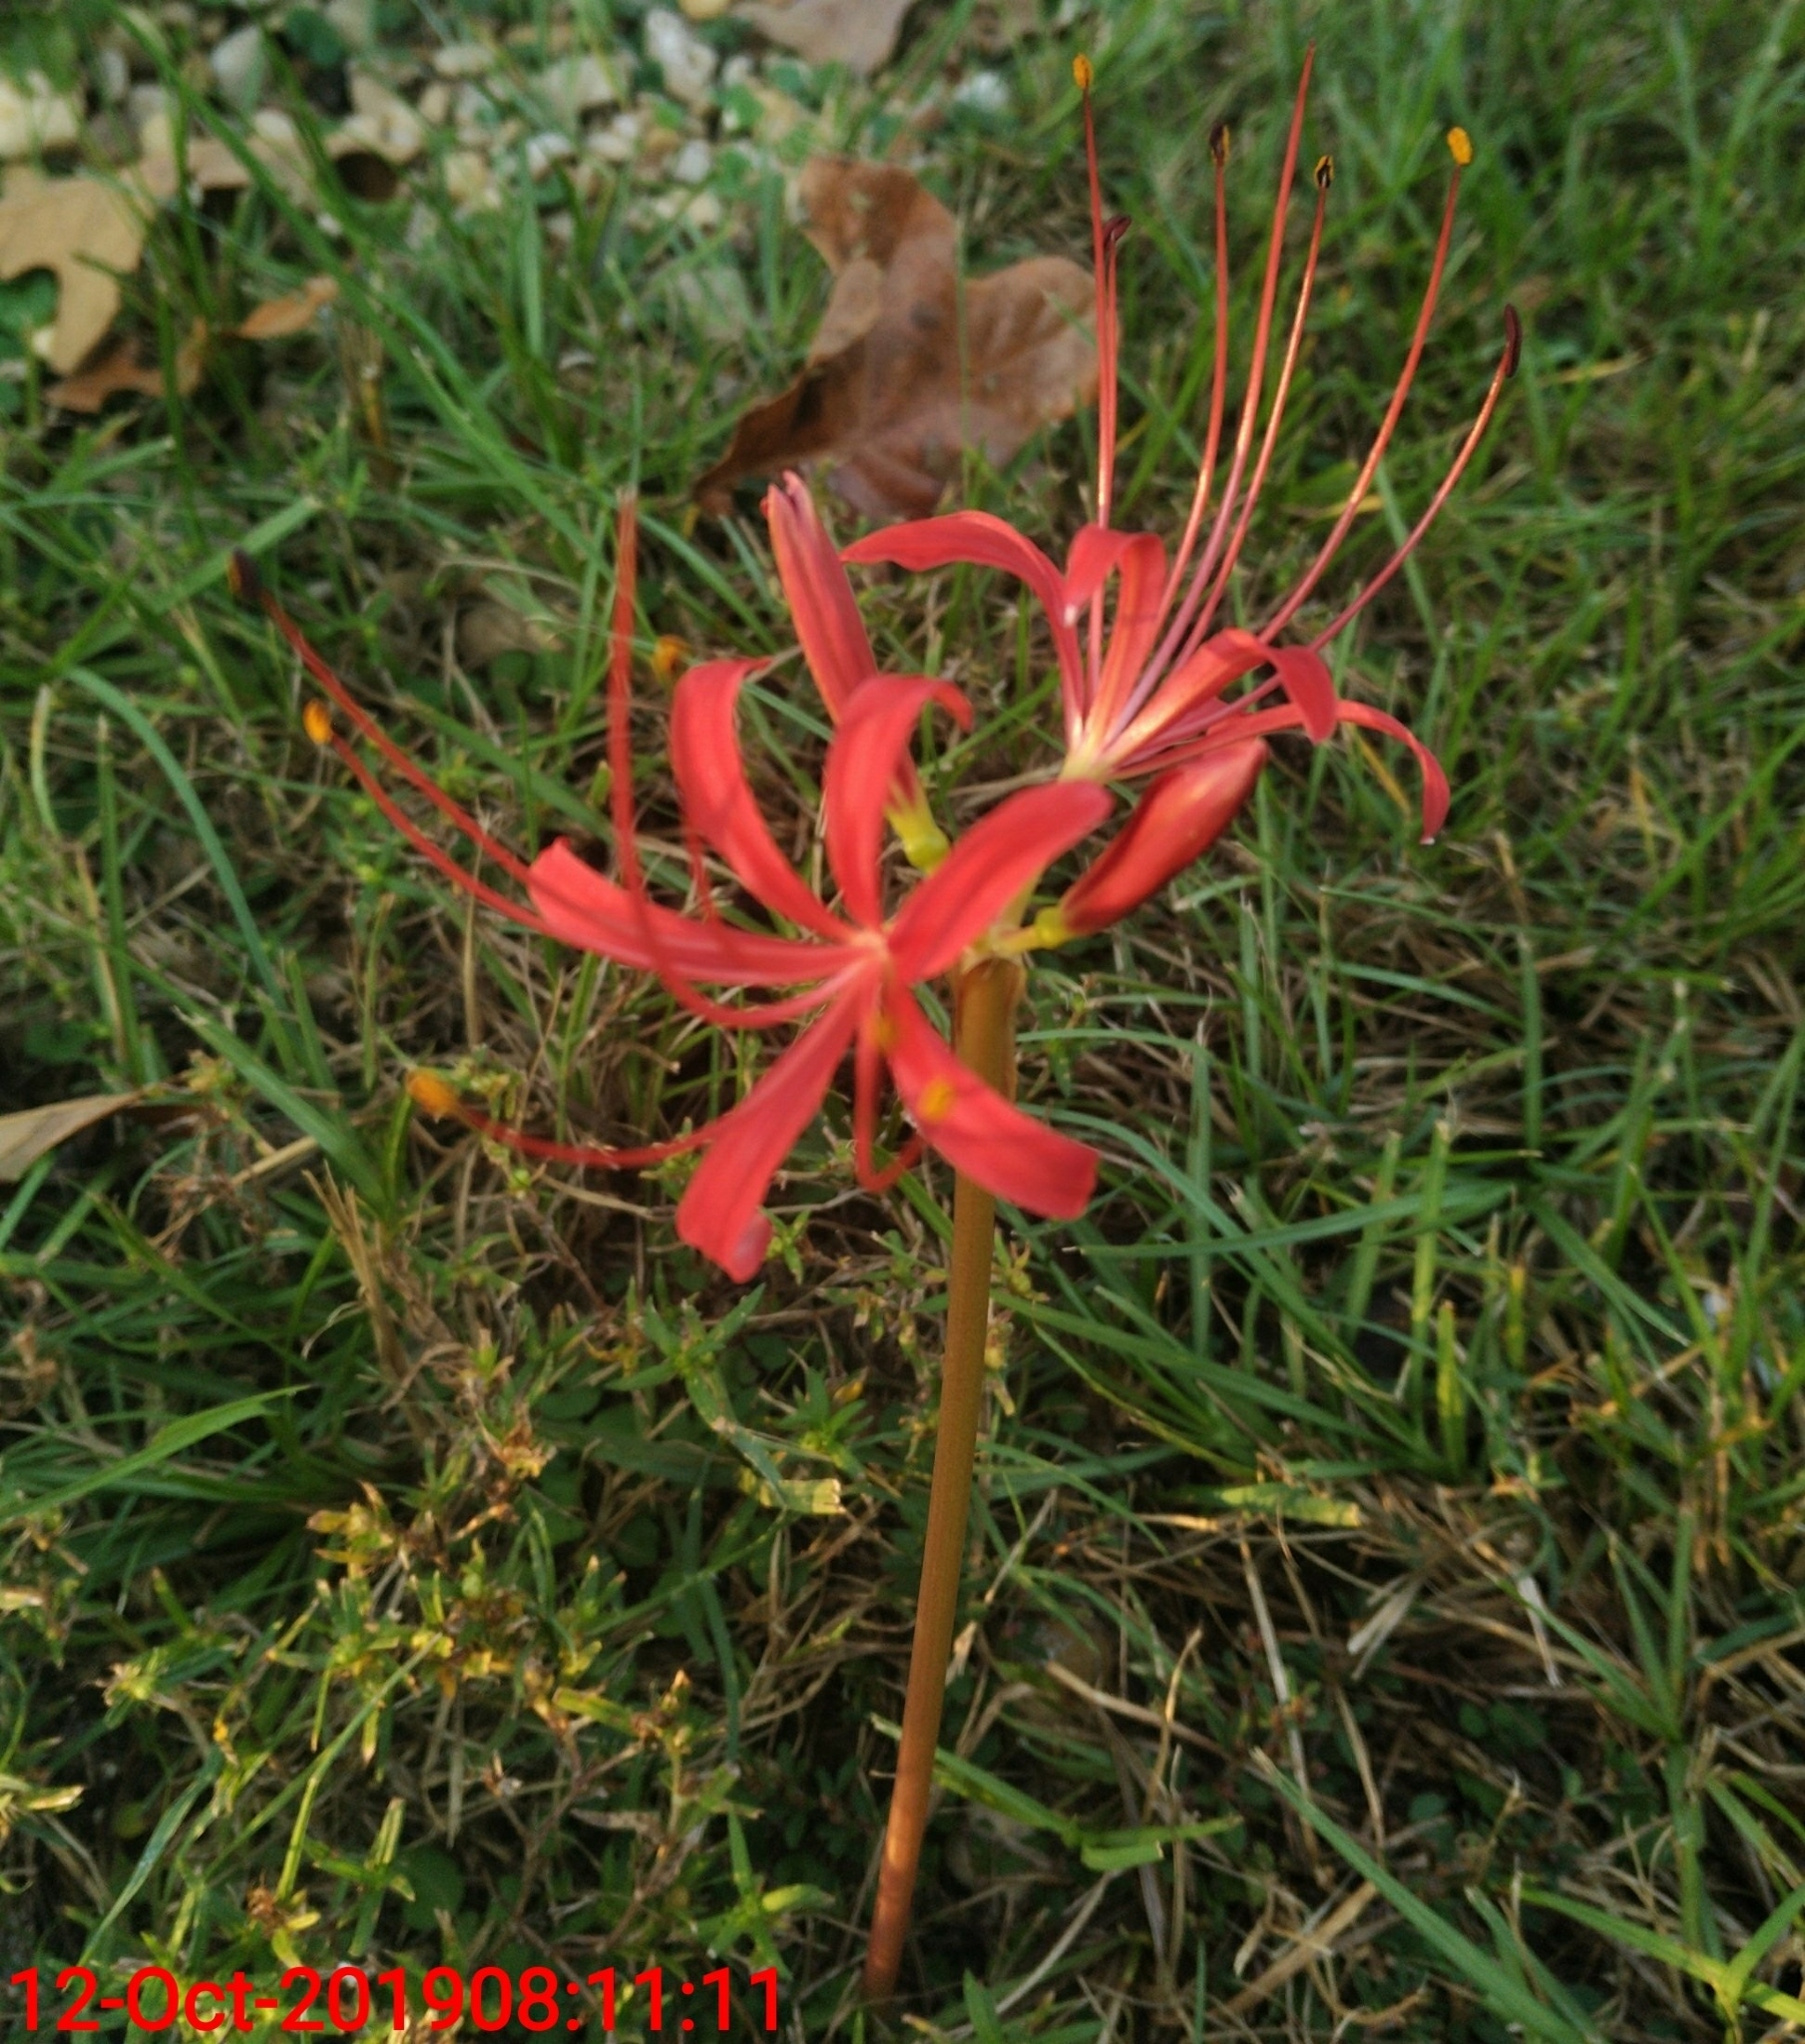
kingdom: Plantae
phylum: Tracheophyta
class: Liliopsida
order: Asparagales
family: Amaryllidaceae
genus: Lycoris
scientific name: Lycoris radiata
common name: Red spider lily
